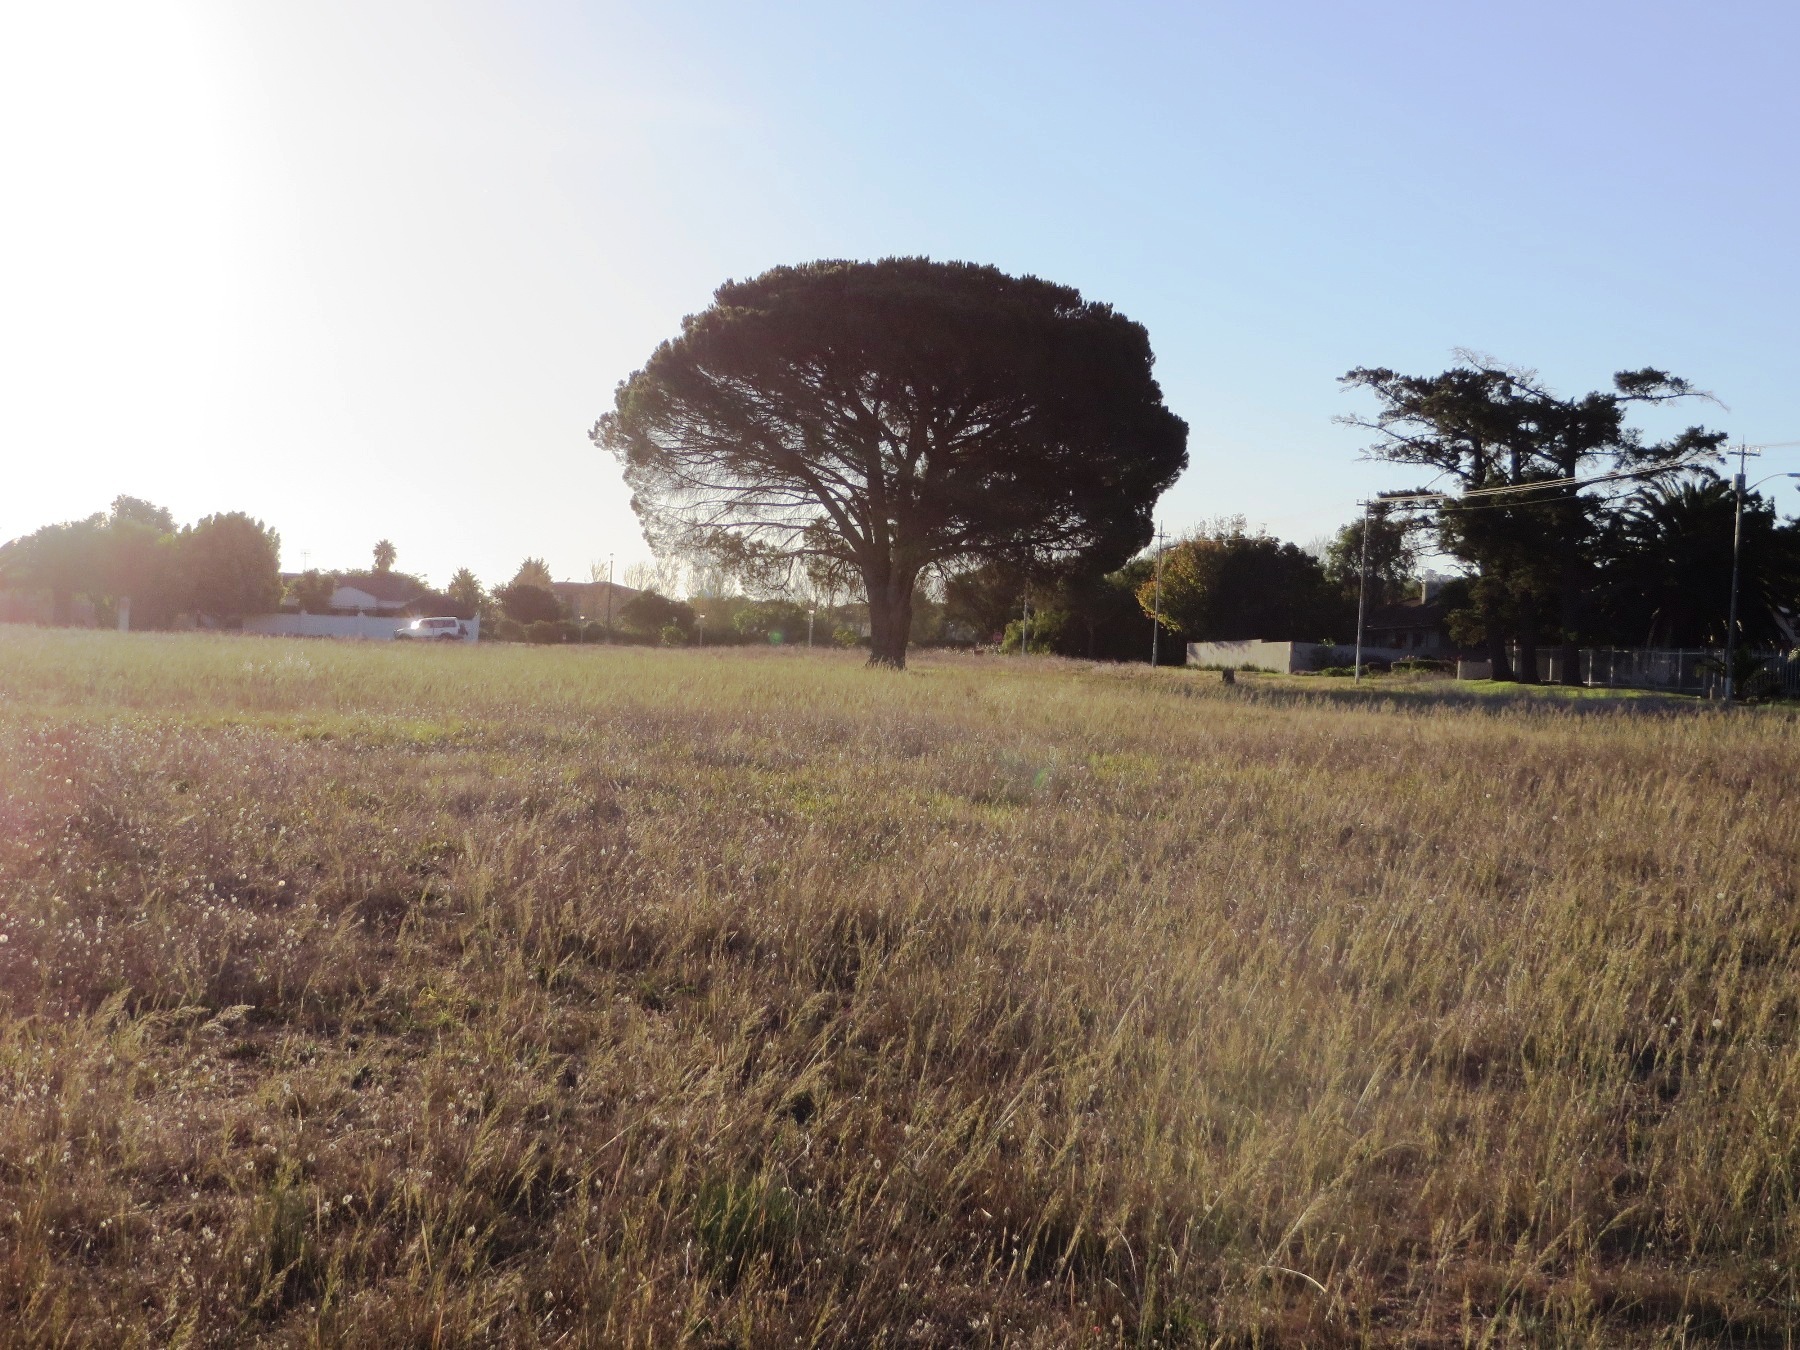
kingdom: Plantae
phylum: Tracheophyta
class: Pinopsida
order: Pinales
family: Pinaceae
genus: Pinus
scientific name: Pinus pinea
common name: Italian stone pine
